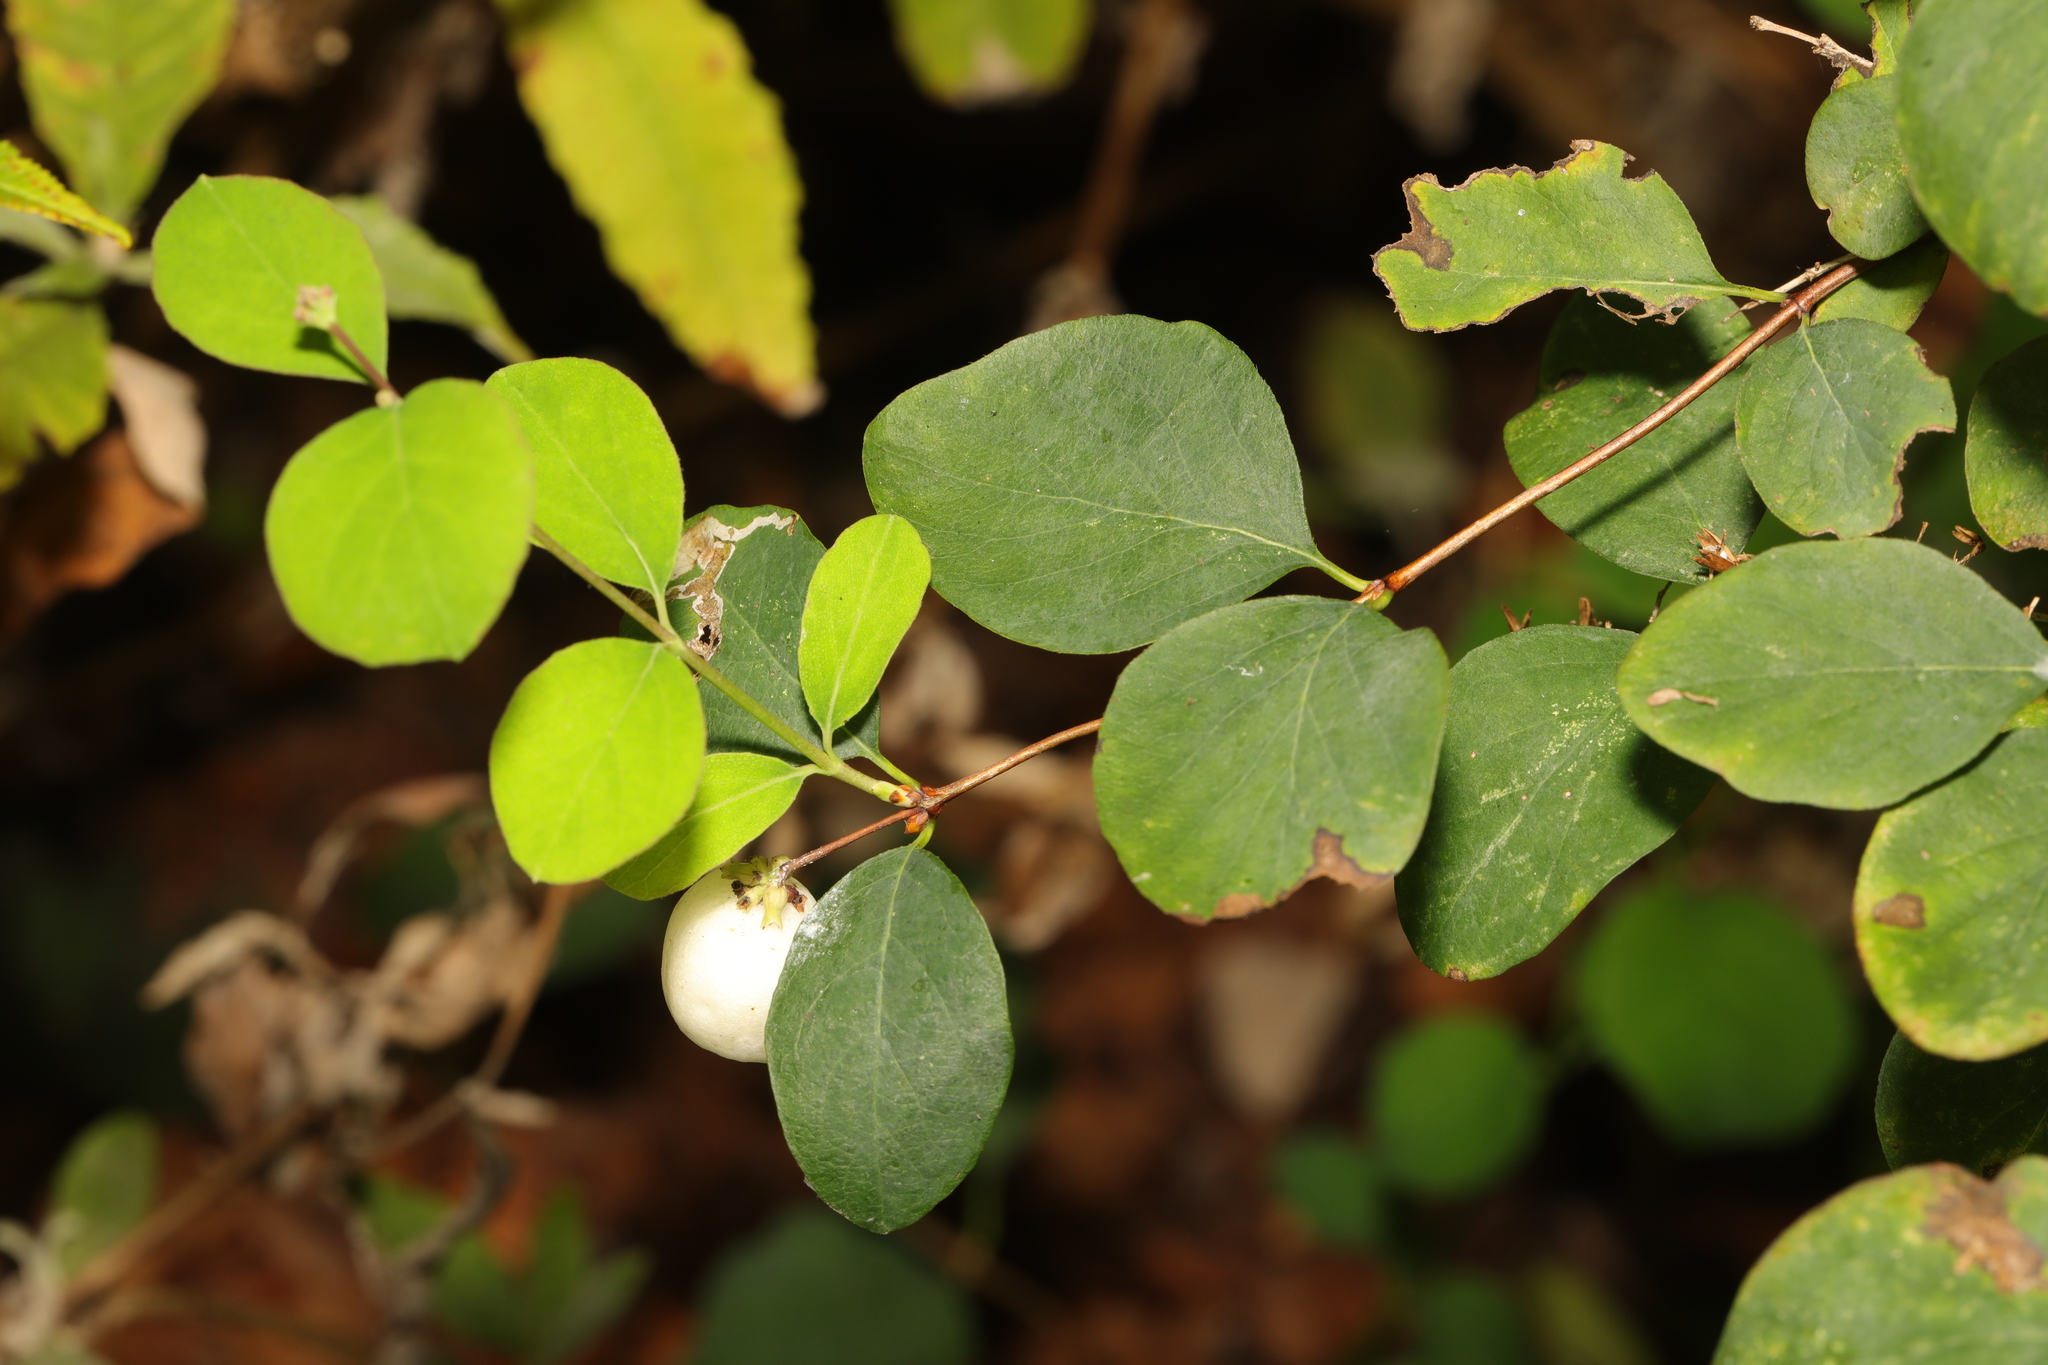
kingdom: Plantae
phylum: Tracheophyta
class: Magnoliopsida
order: Dipsacales
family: Caprifoliaceae
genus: Symphoricarpos
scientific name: Symphoricarpos albus
